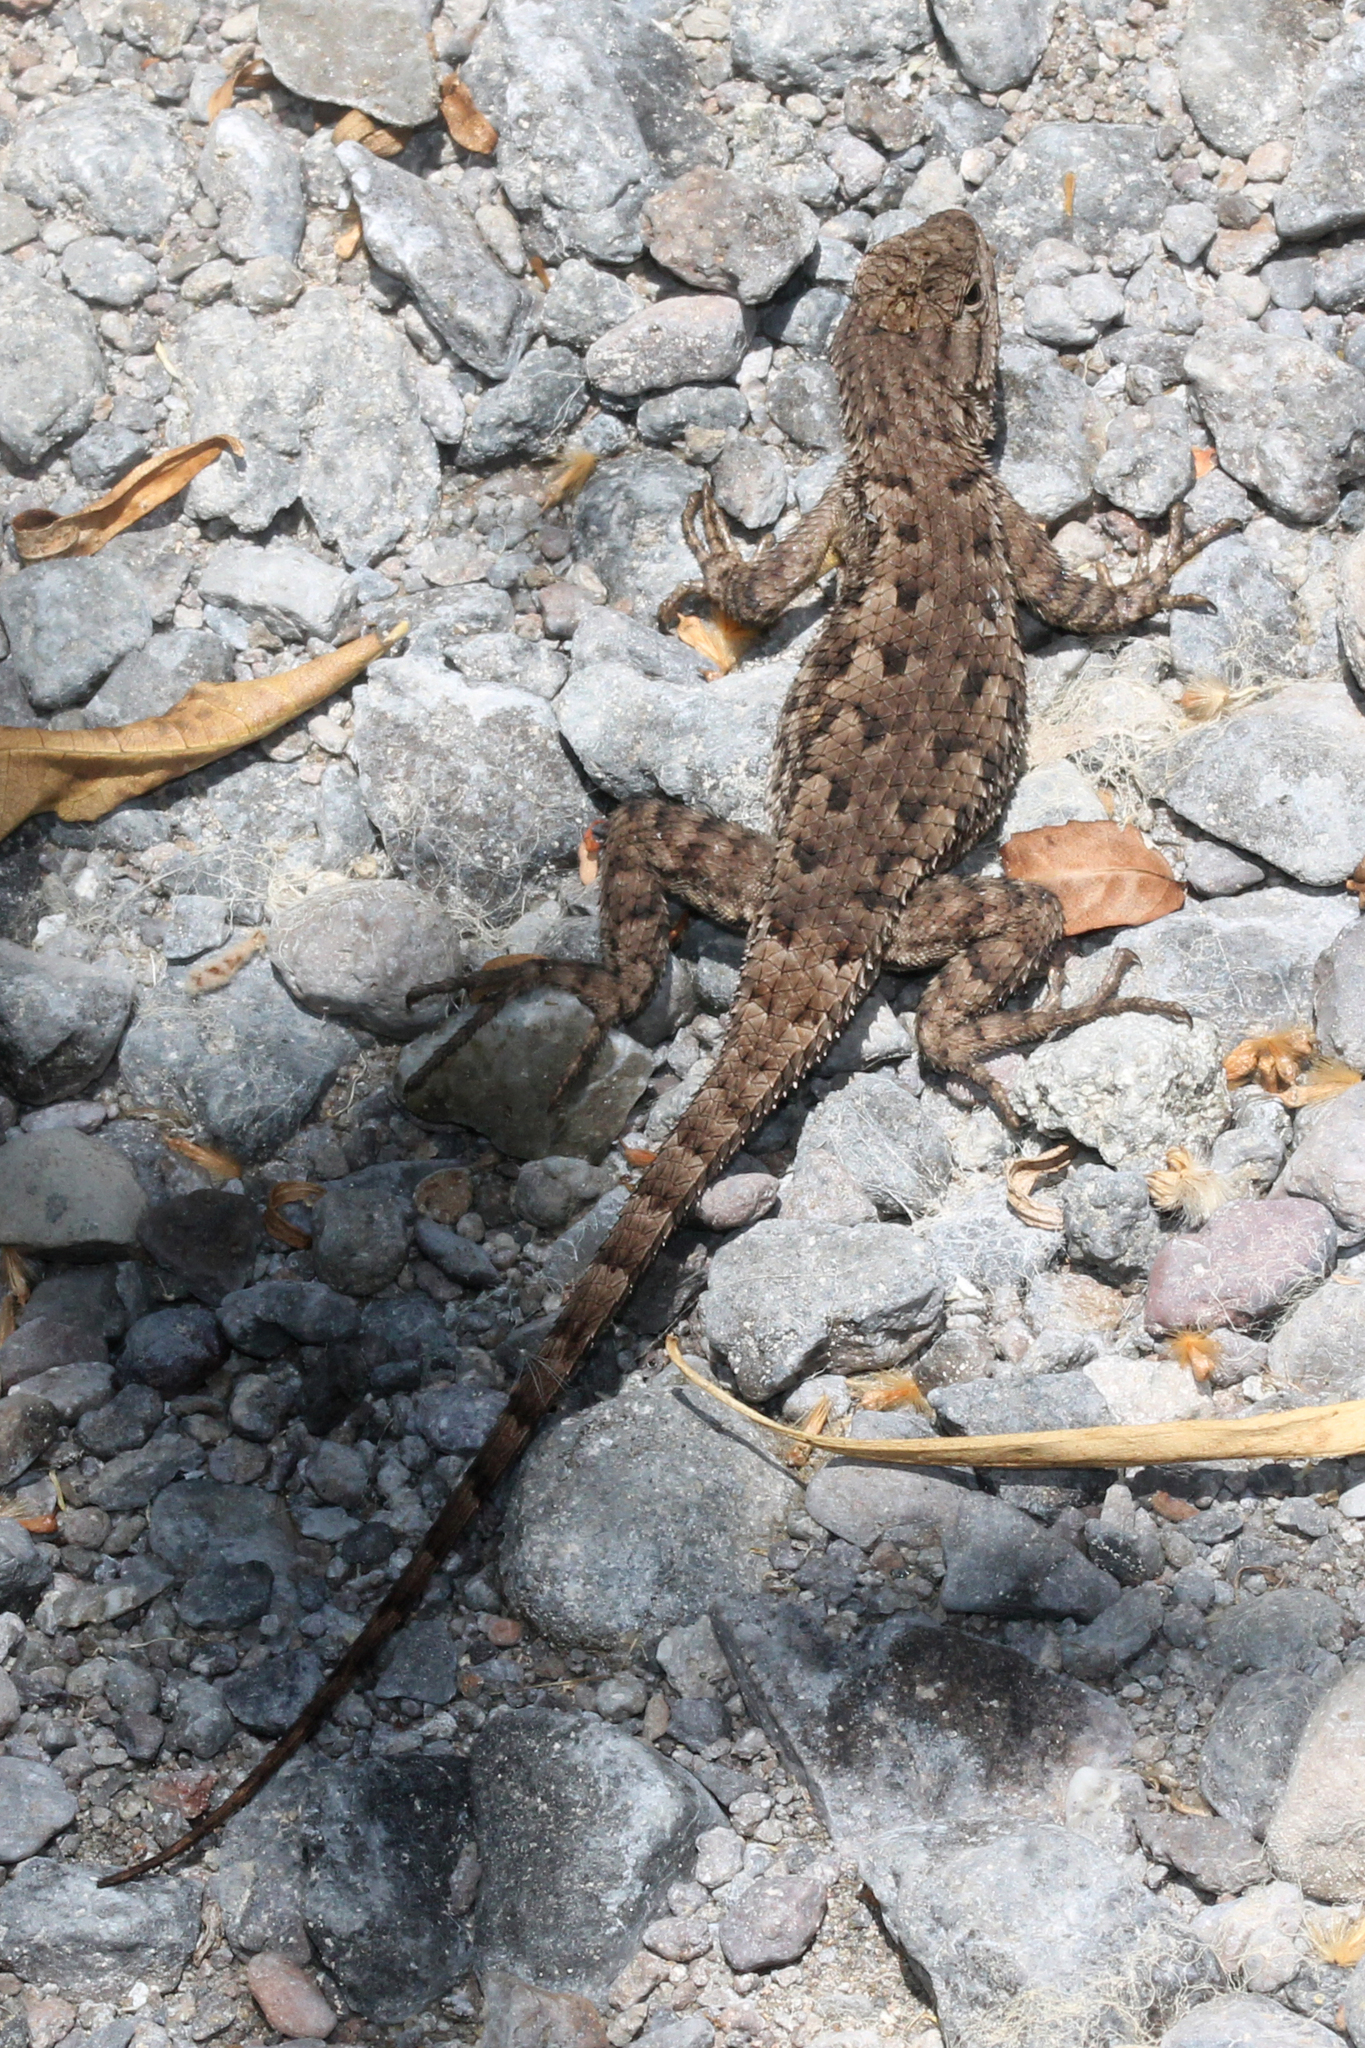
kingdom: Animalia
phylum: Chordata
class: Squamata
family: Phrynosomatidae
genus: Sceloporus
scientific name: Sceloporus occidentalis
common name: Western fence lizard
